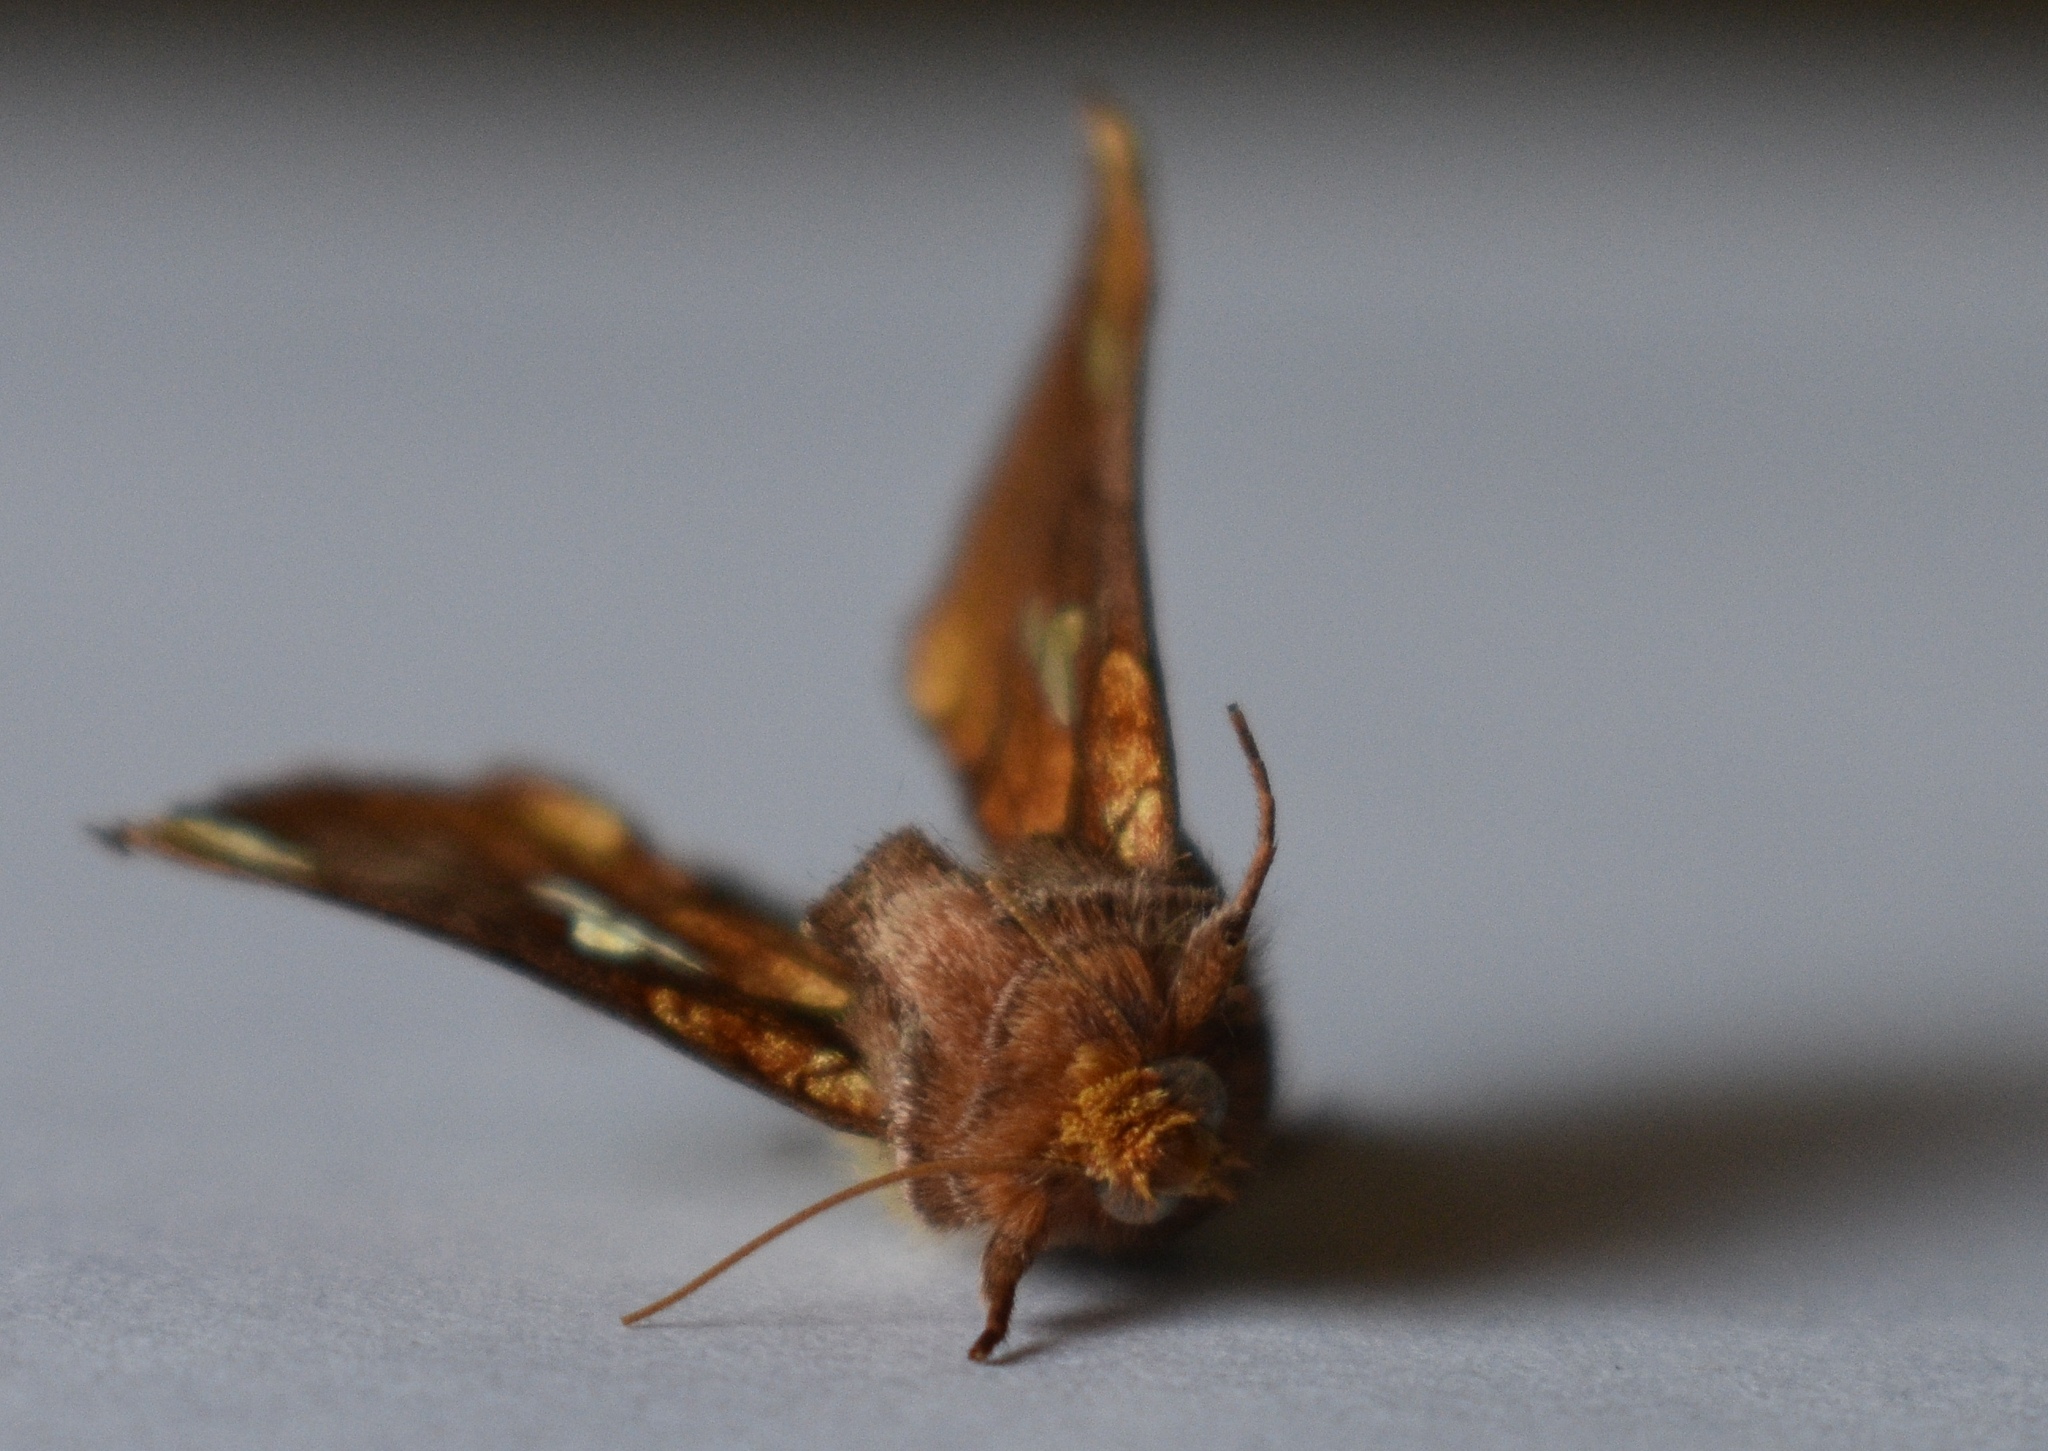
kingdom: Animalia
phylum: Arthropoda
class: Insecta
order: Lepidoptera
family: Noctuidae
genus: Plusia
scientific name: Plusia putnami
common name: Lempke's gold spot
